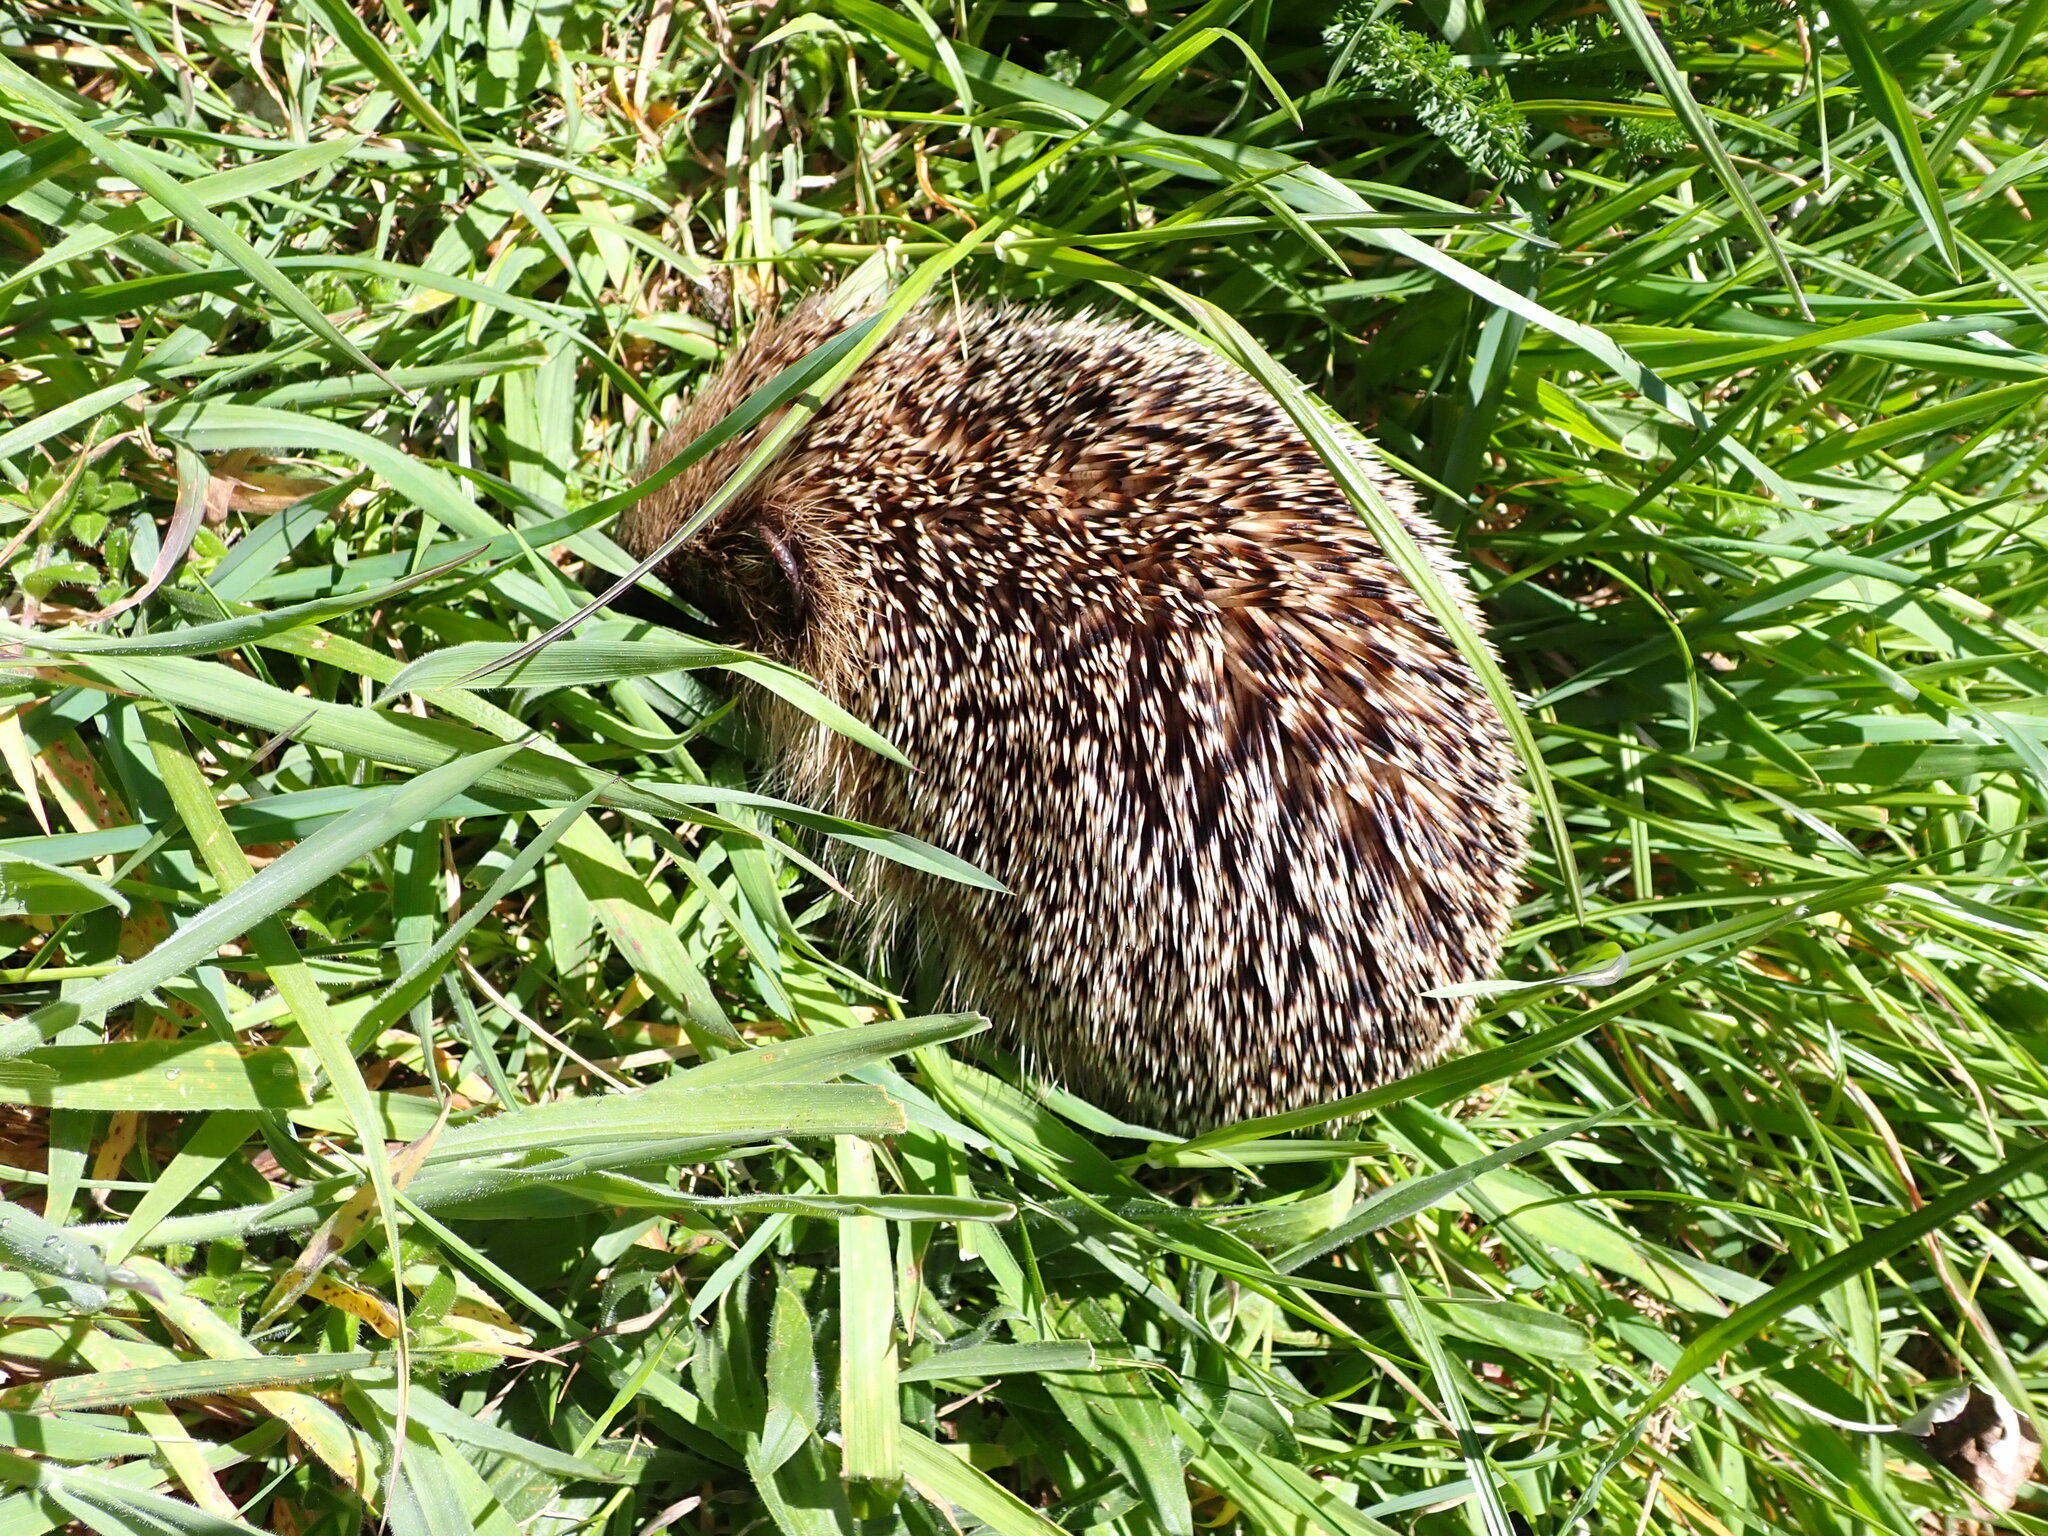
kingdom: Animalia
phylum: Chordata
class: Mammalia
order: Erinaceomorpha
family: Erinaceidae
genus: Erinaceus
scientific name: Erinaceus europaeus
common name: West european hedgehog
